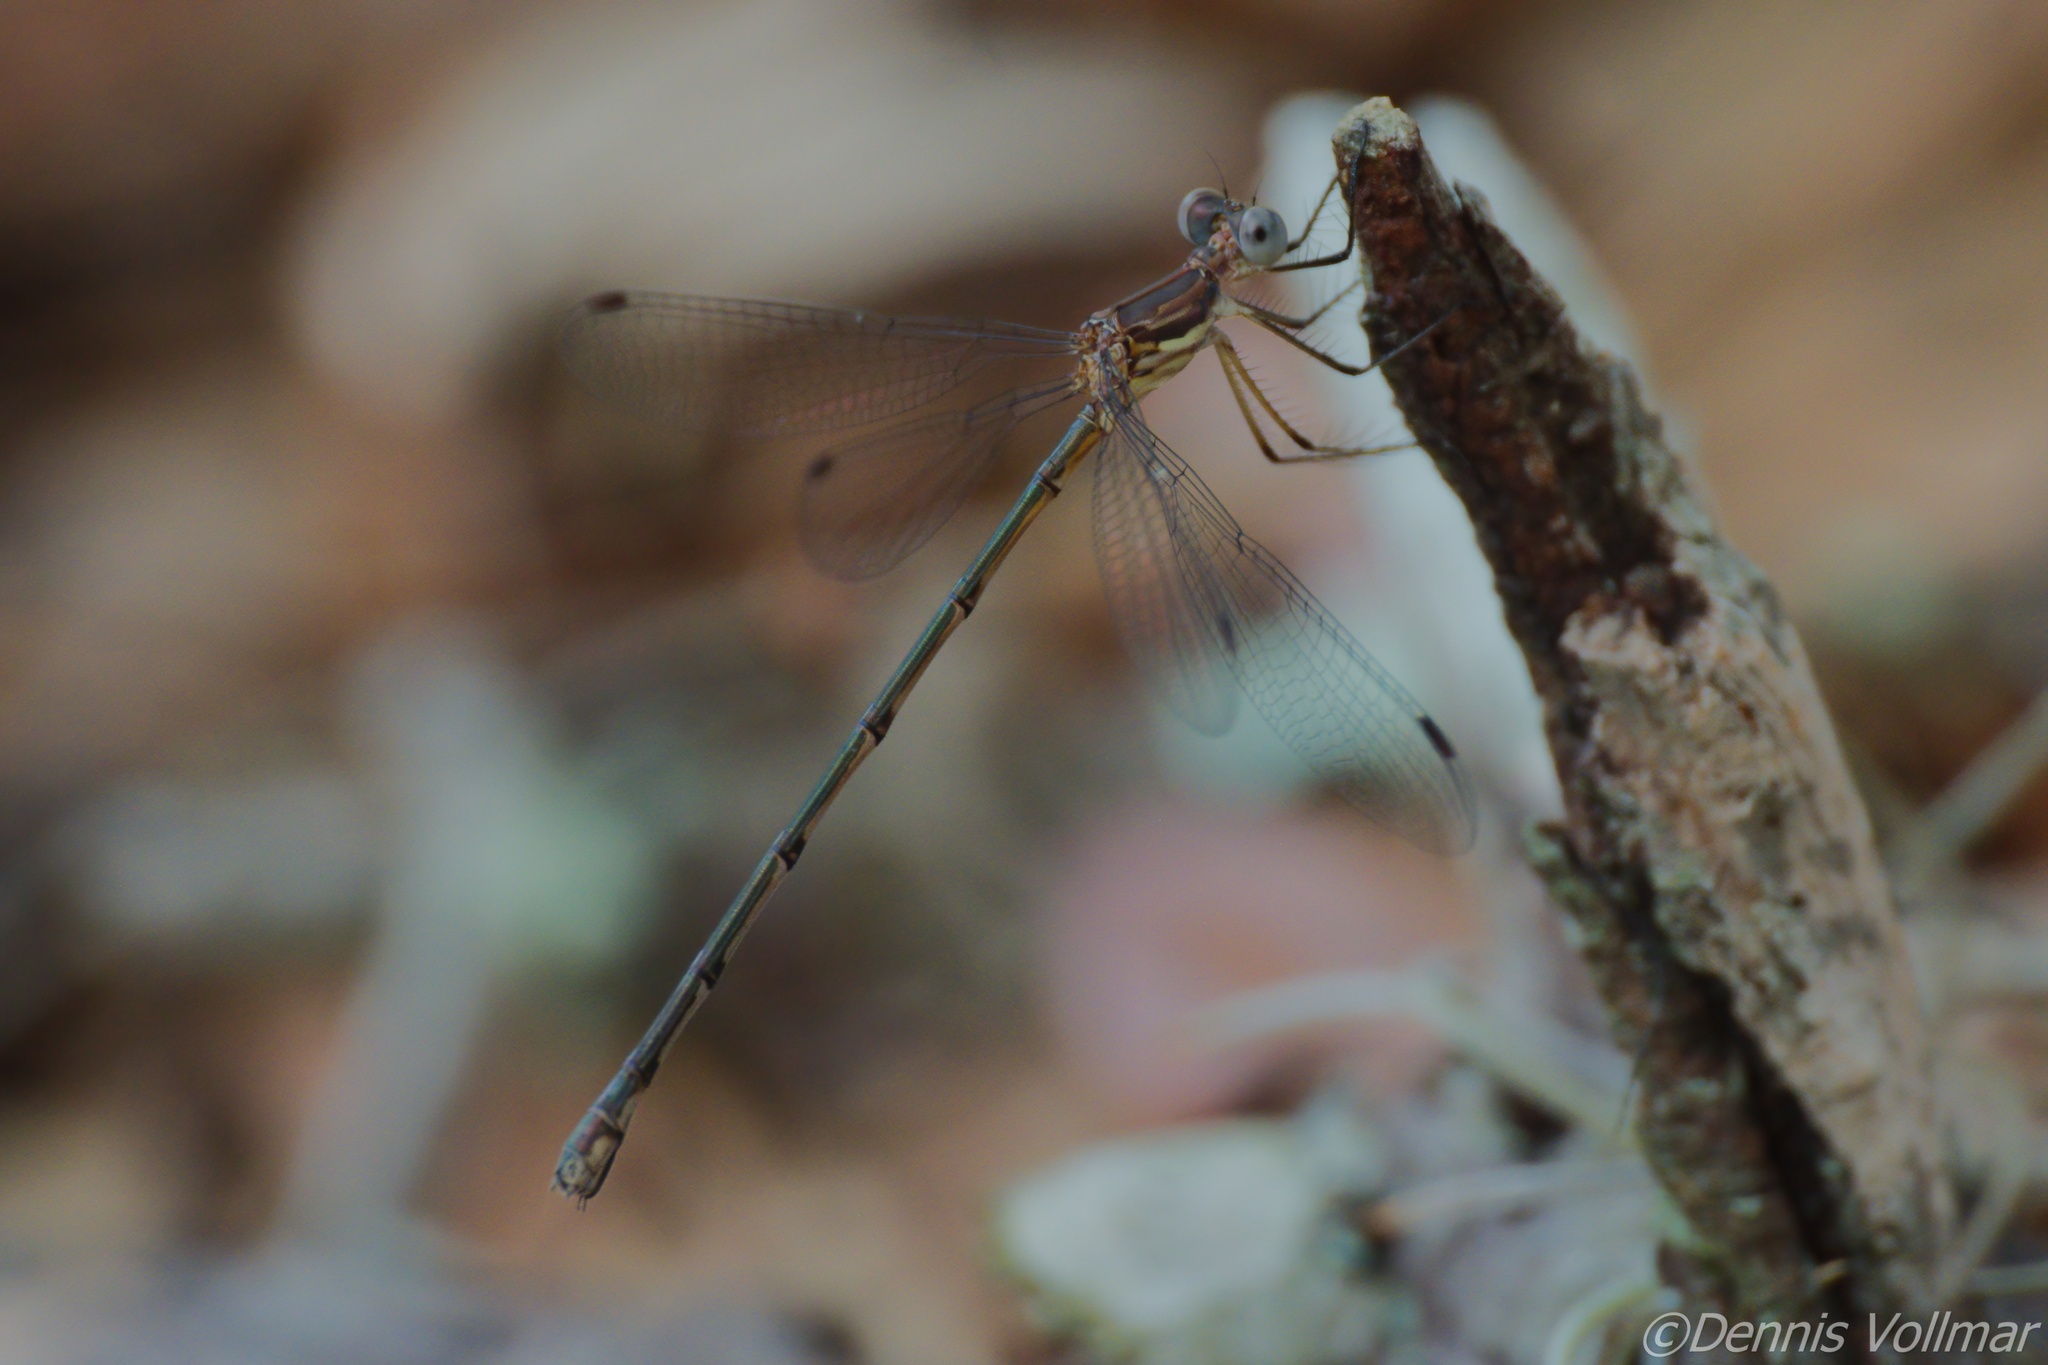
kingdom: Animalia
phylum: Arthropoda
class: Insecta
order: Odonata
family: Lestidae
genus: Lestes
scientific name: Lestes vidua
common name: Carolina spreadwing
